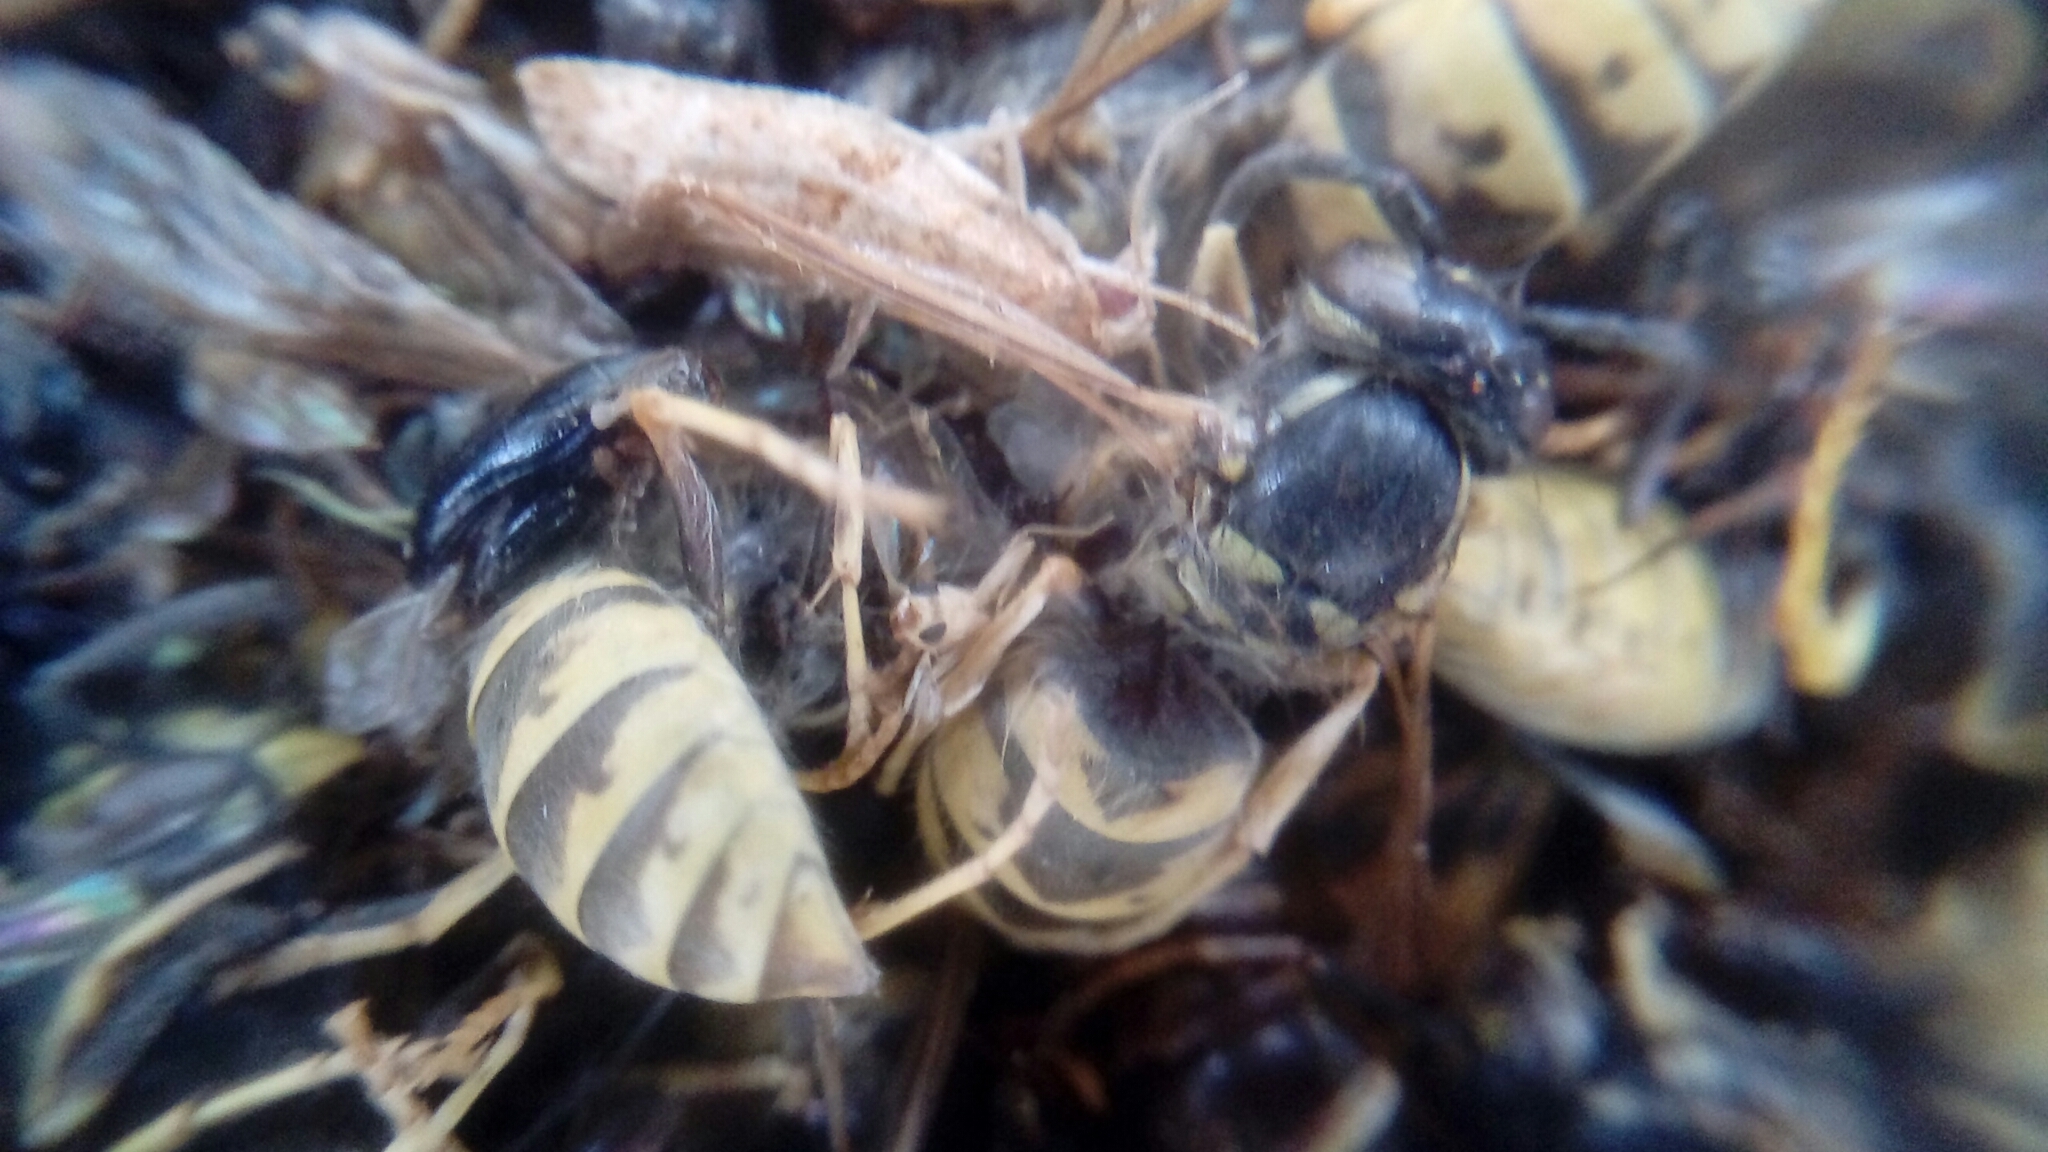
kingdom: Animalia
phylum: Arthropoda
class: Insecta
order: Hymenoptera
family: Vespidae
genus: Vespula
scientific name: Vespula vulgaris
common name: Common wasp
